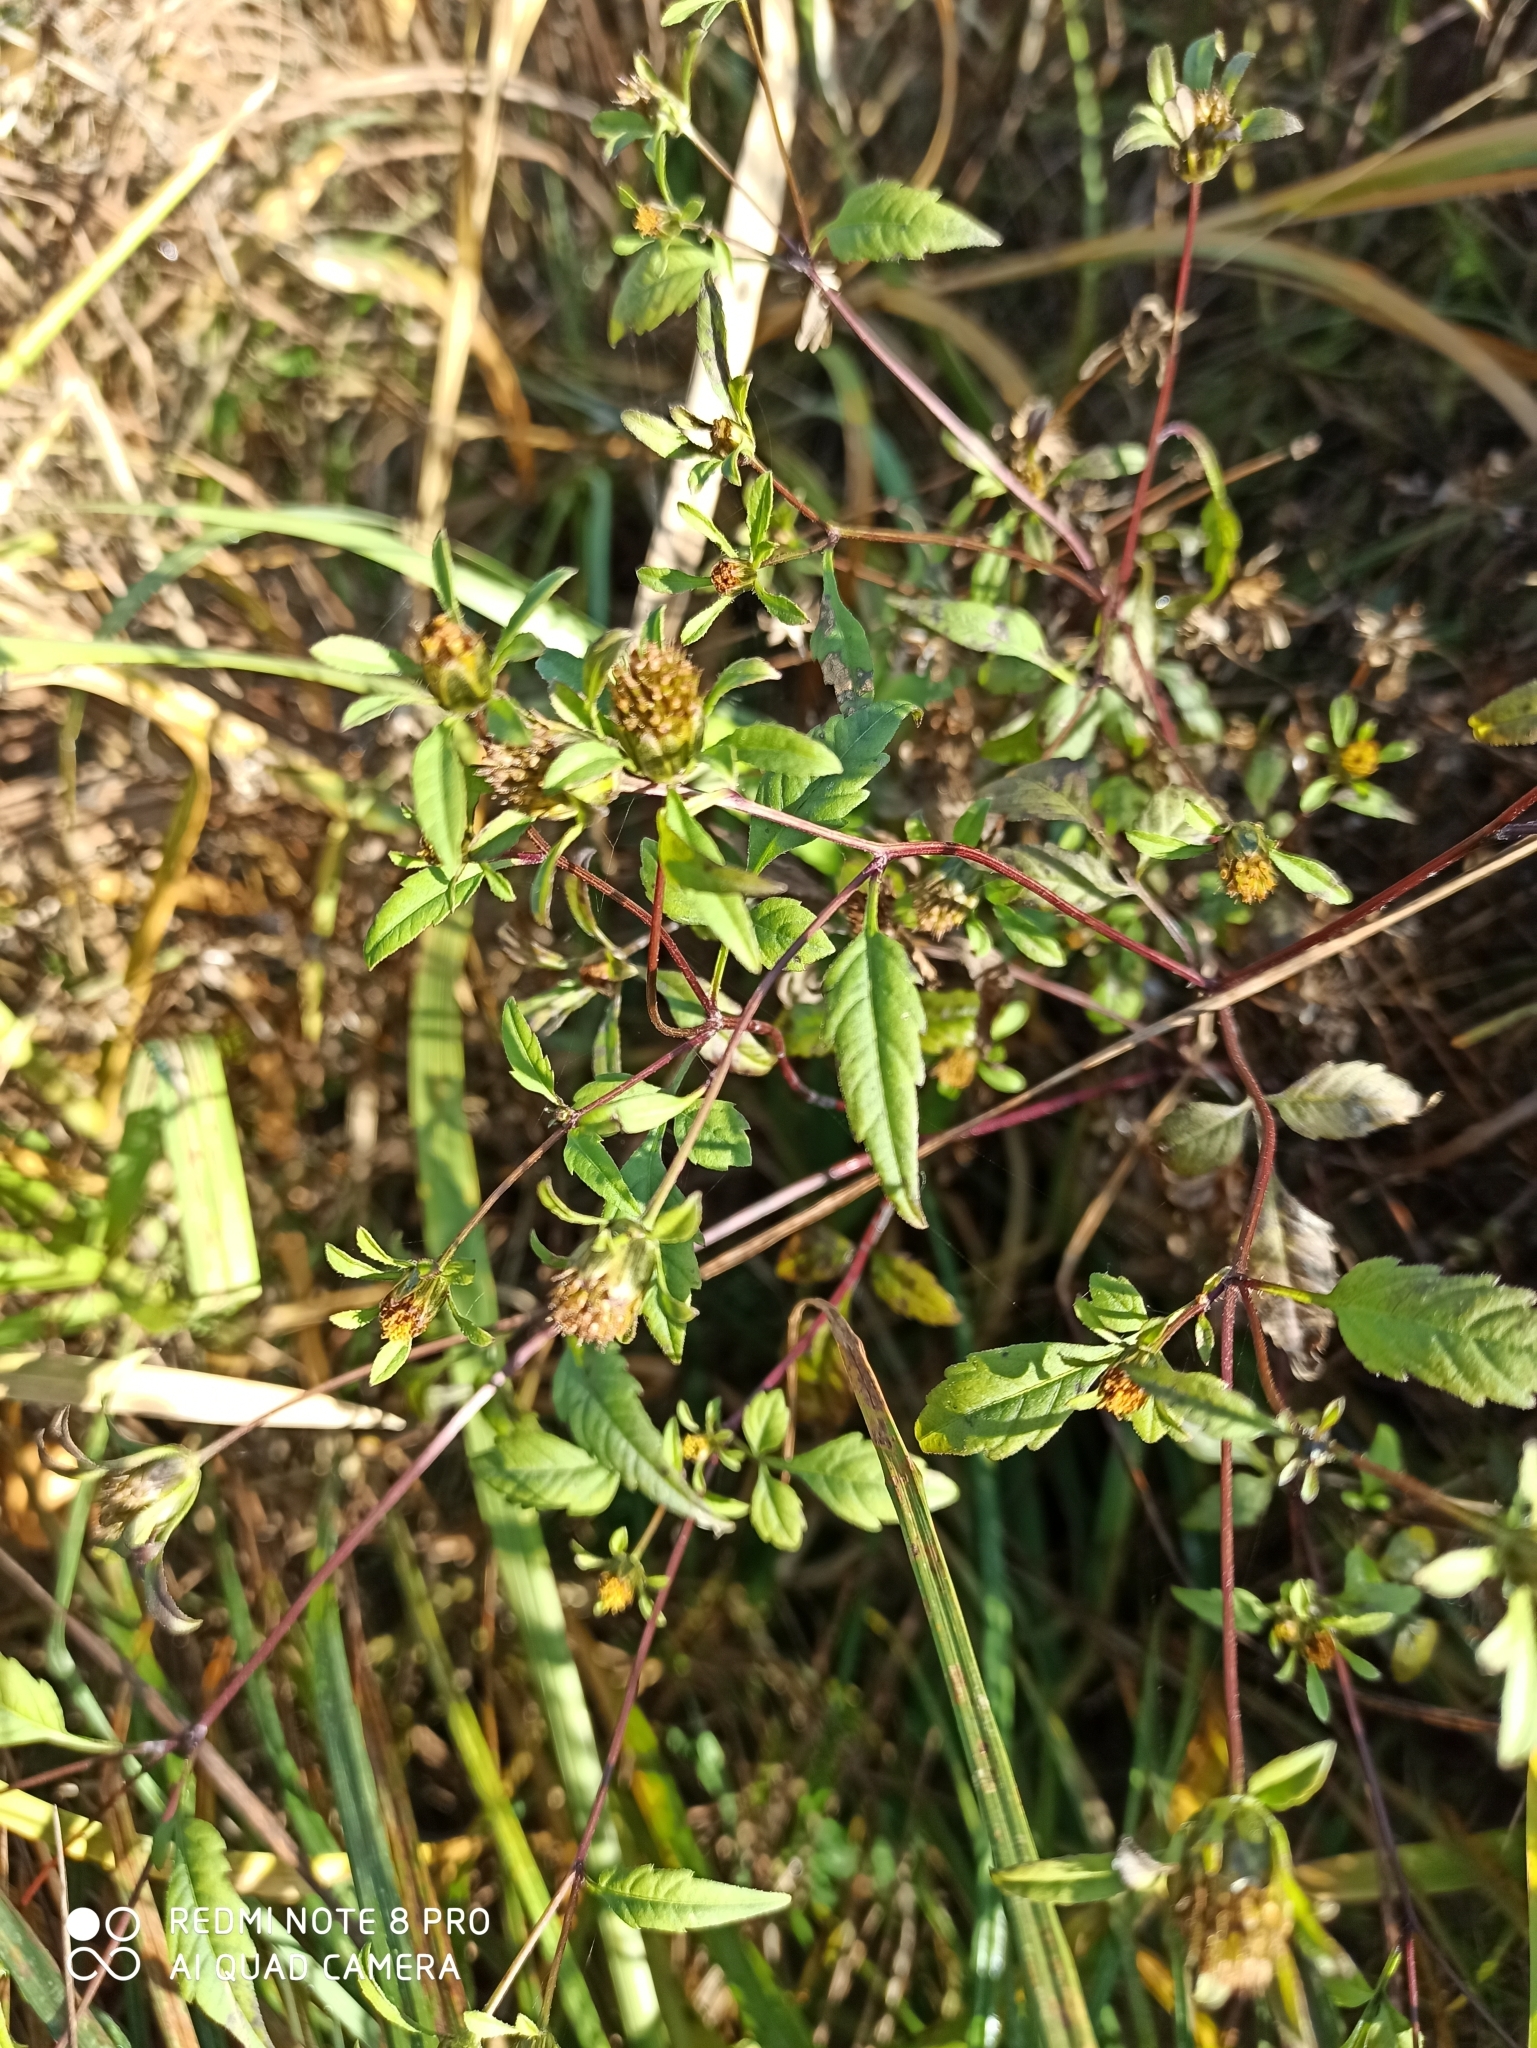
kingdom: Plantae
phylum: Tracheophyta
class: Magnoliopsida
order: Asterales
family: Asteraceae
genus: Bidens
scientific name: Bidens frondosa
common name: Beggarticks
